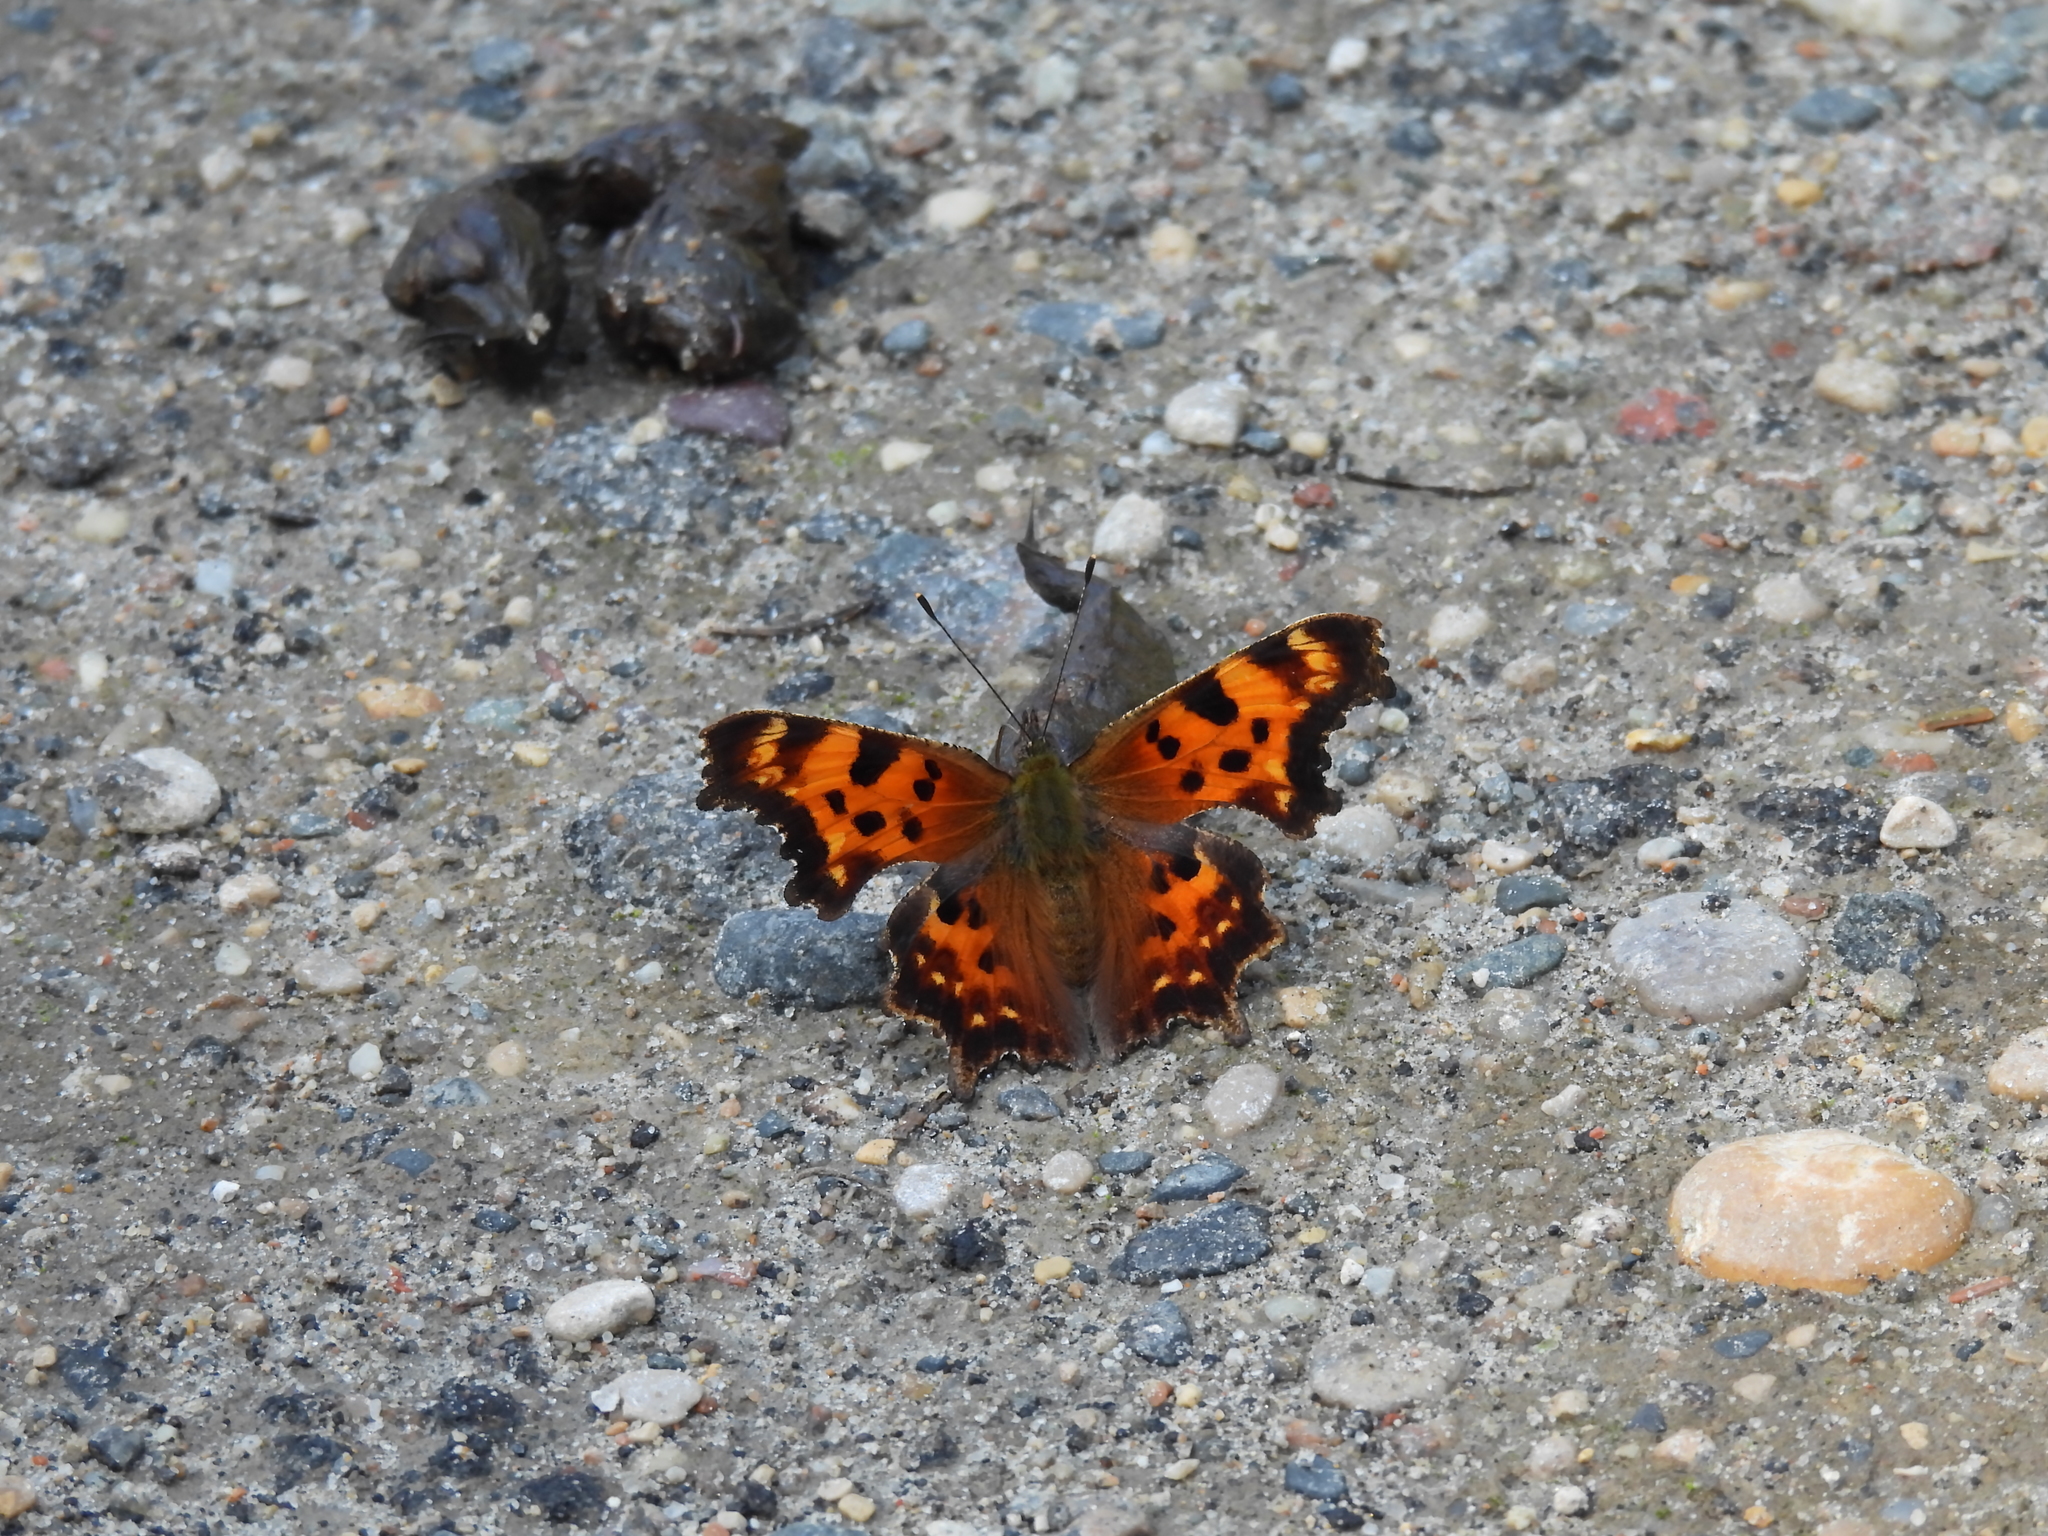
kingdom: Animalia
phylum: Arthropoda
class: Insecta
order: Lepidoptera
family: Nymphalidae
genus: Polygonia
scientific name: Polygonia faunus
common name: Green comma
